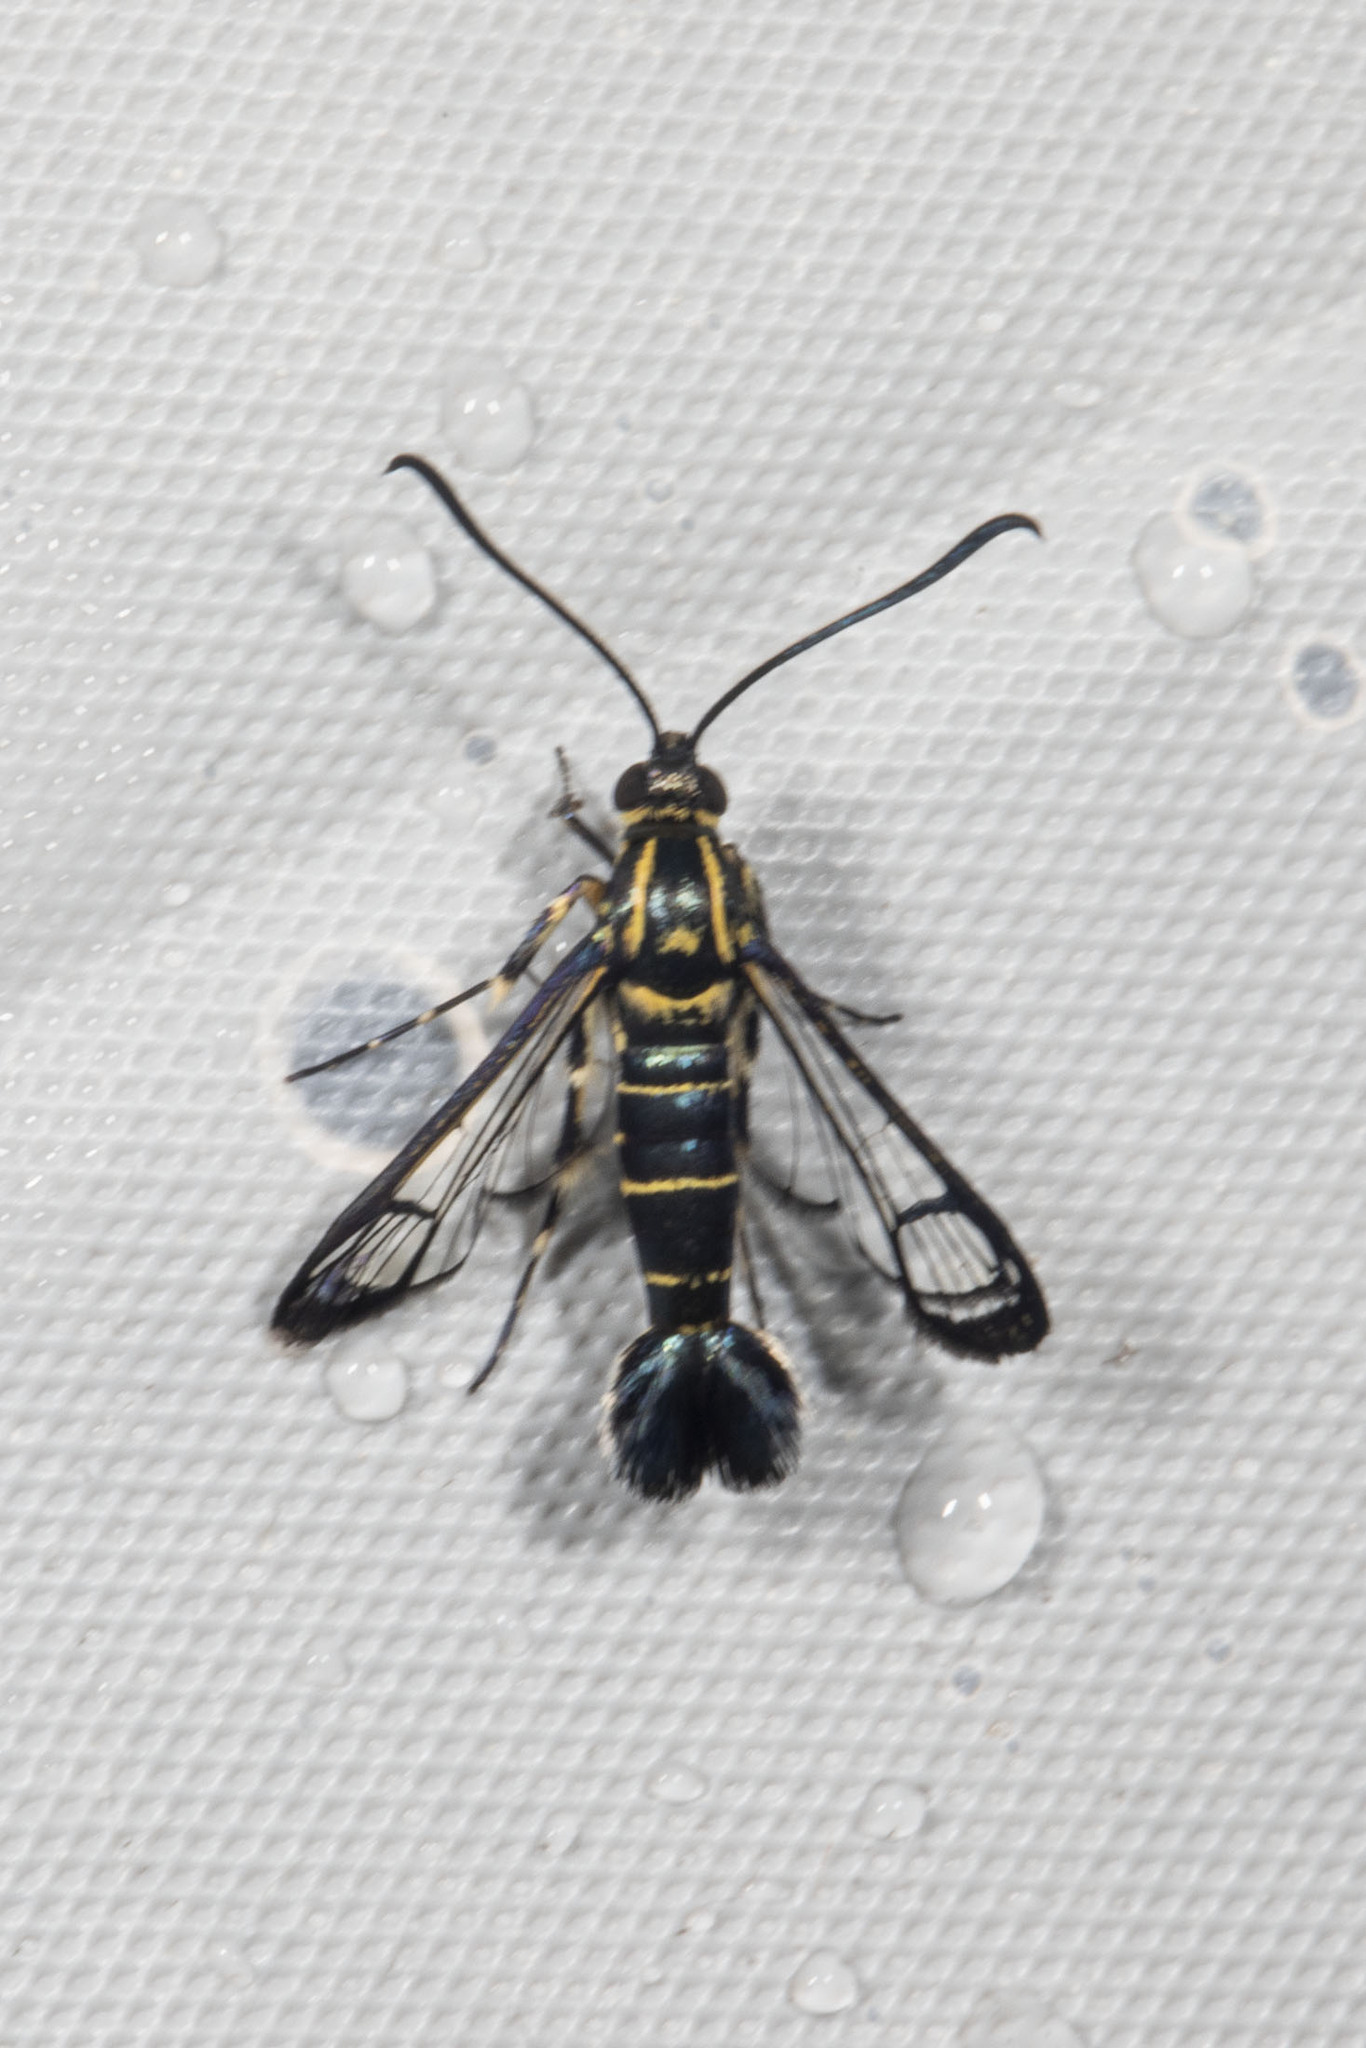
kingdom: Animalia
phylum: Arthropoda
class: Insecta
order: Lepidoptera
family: Sesiidae
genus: Carmenta
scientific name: Carmenta guyanensis
